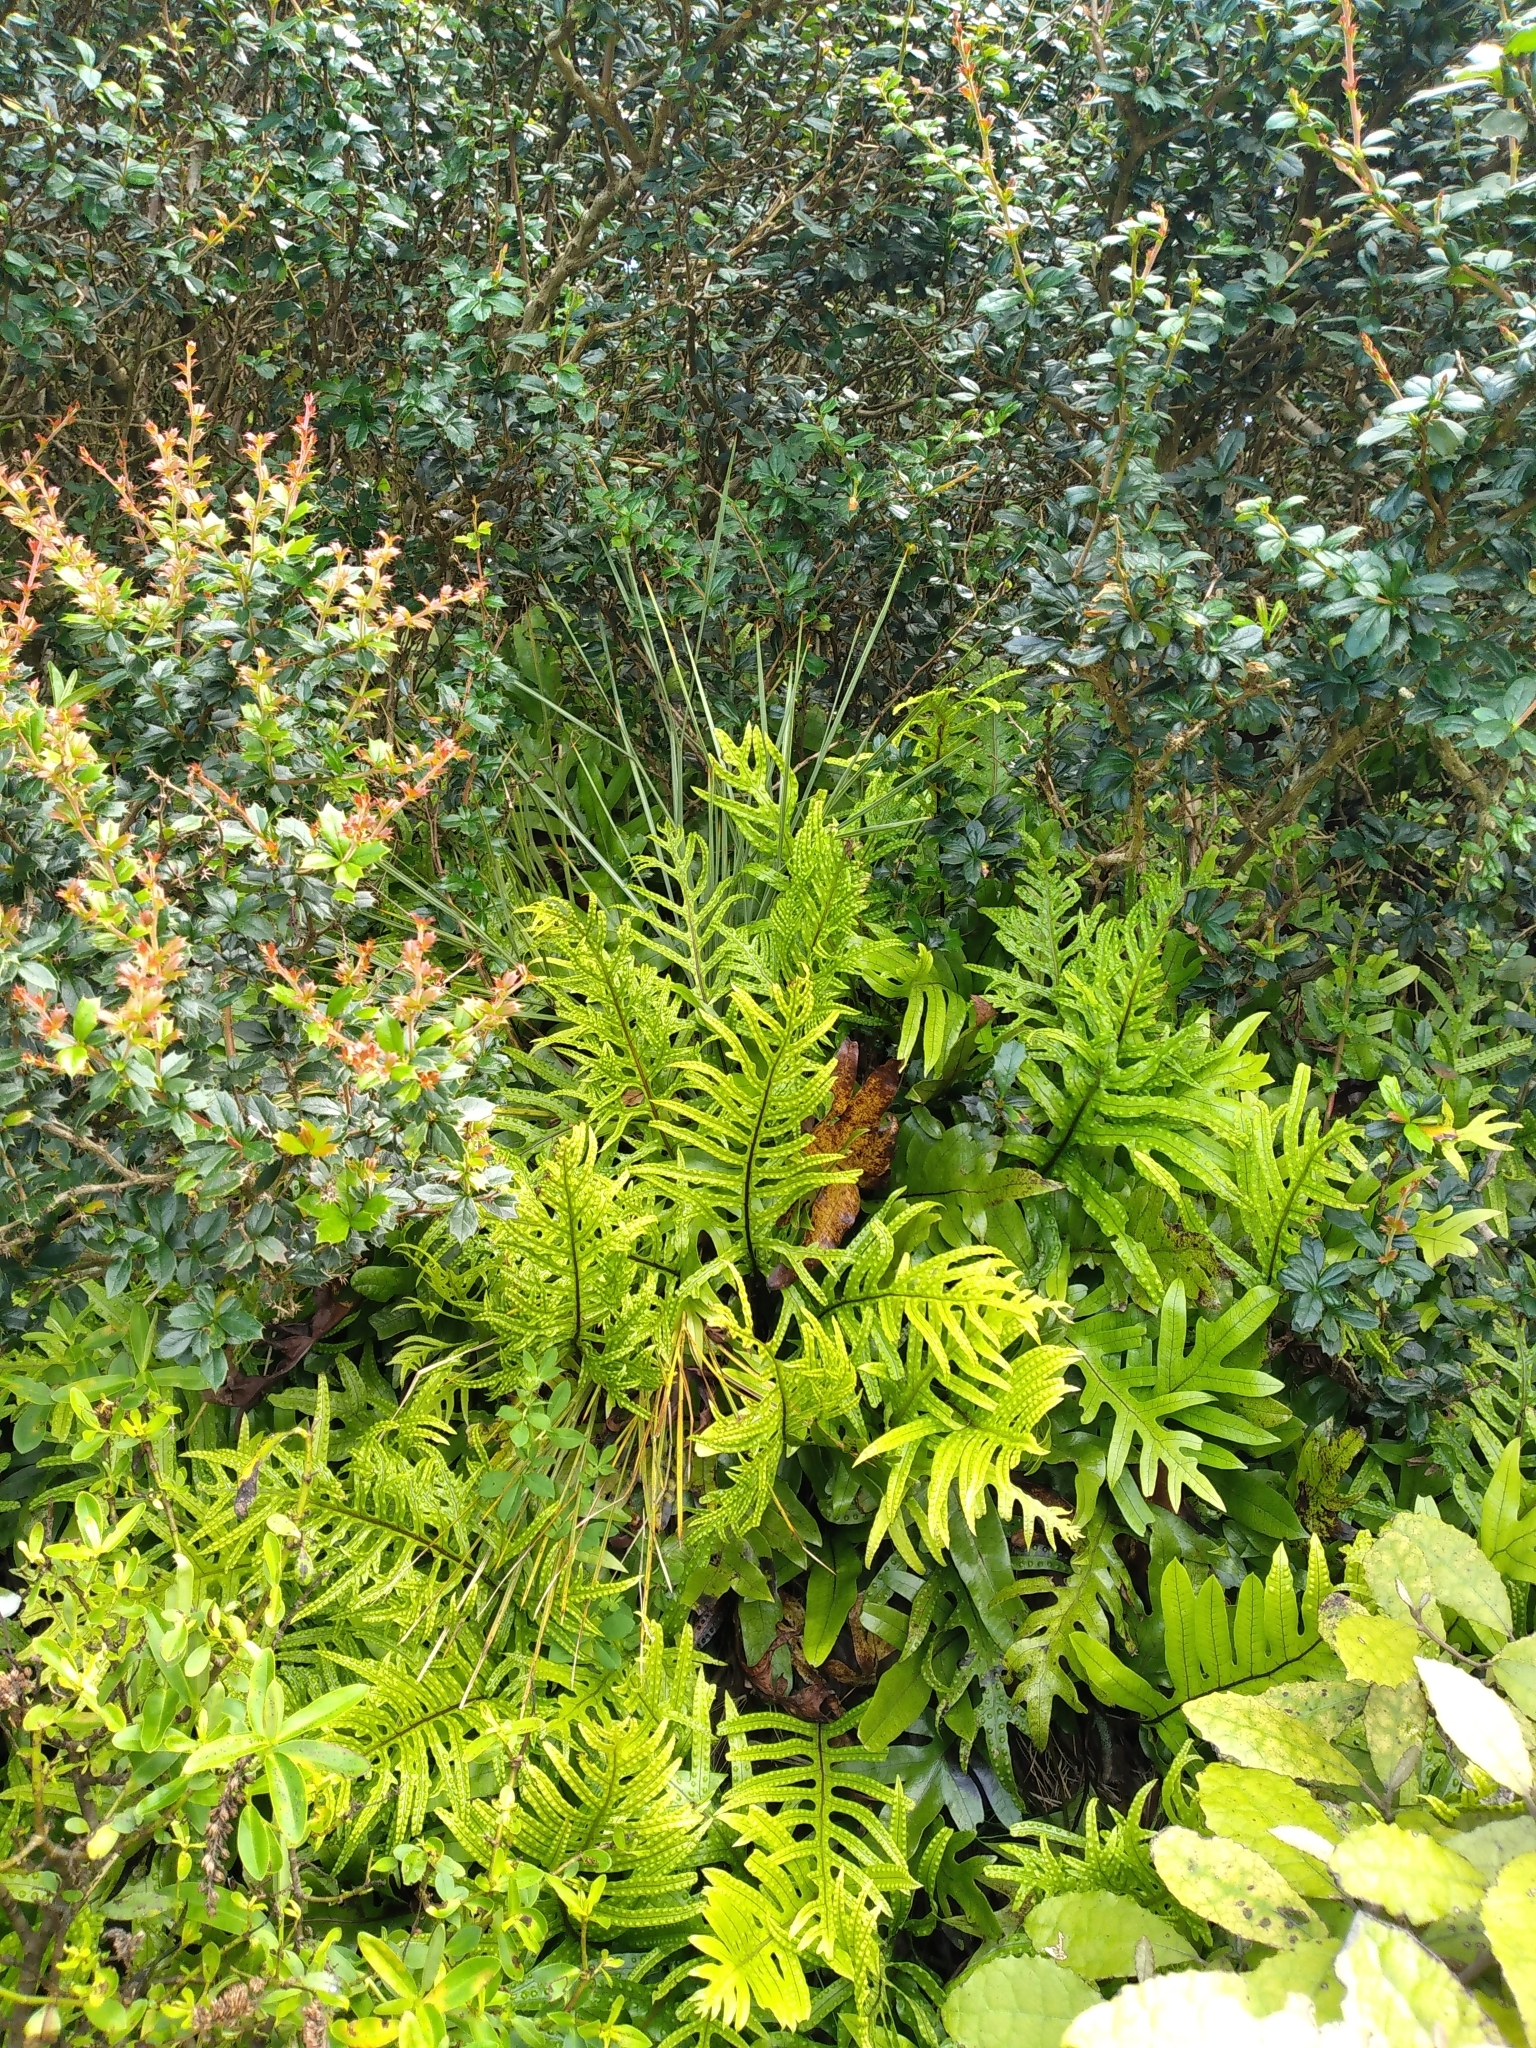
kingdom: Plantae
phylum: Tracheophyta
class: Magnoliopsida
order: Apiales
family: Apiaceae
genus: Aciphylla
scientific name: Aciphylla squarrosa
